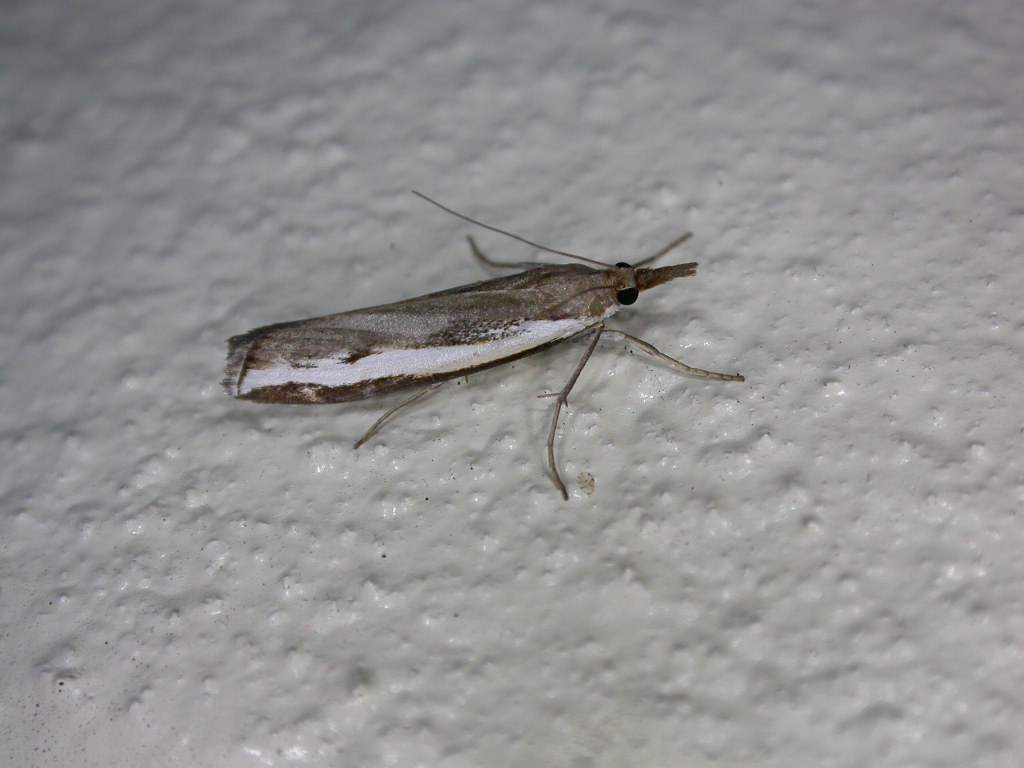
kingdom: Animalia
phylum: Arthropoda
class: Insecta
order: Lepidoptera
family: Crambidae
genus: Orocrambus
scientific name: Orocrambus flexuosellus
